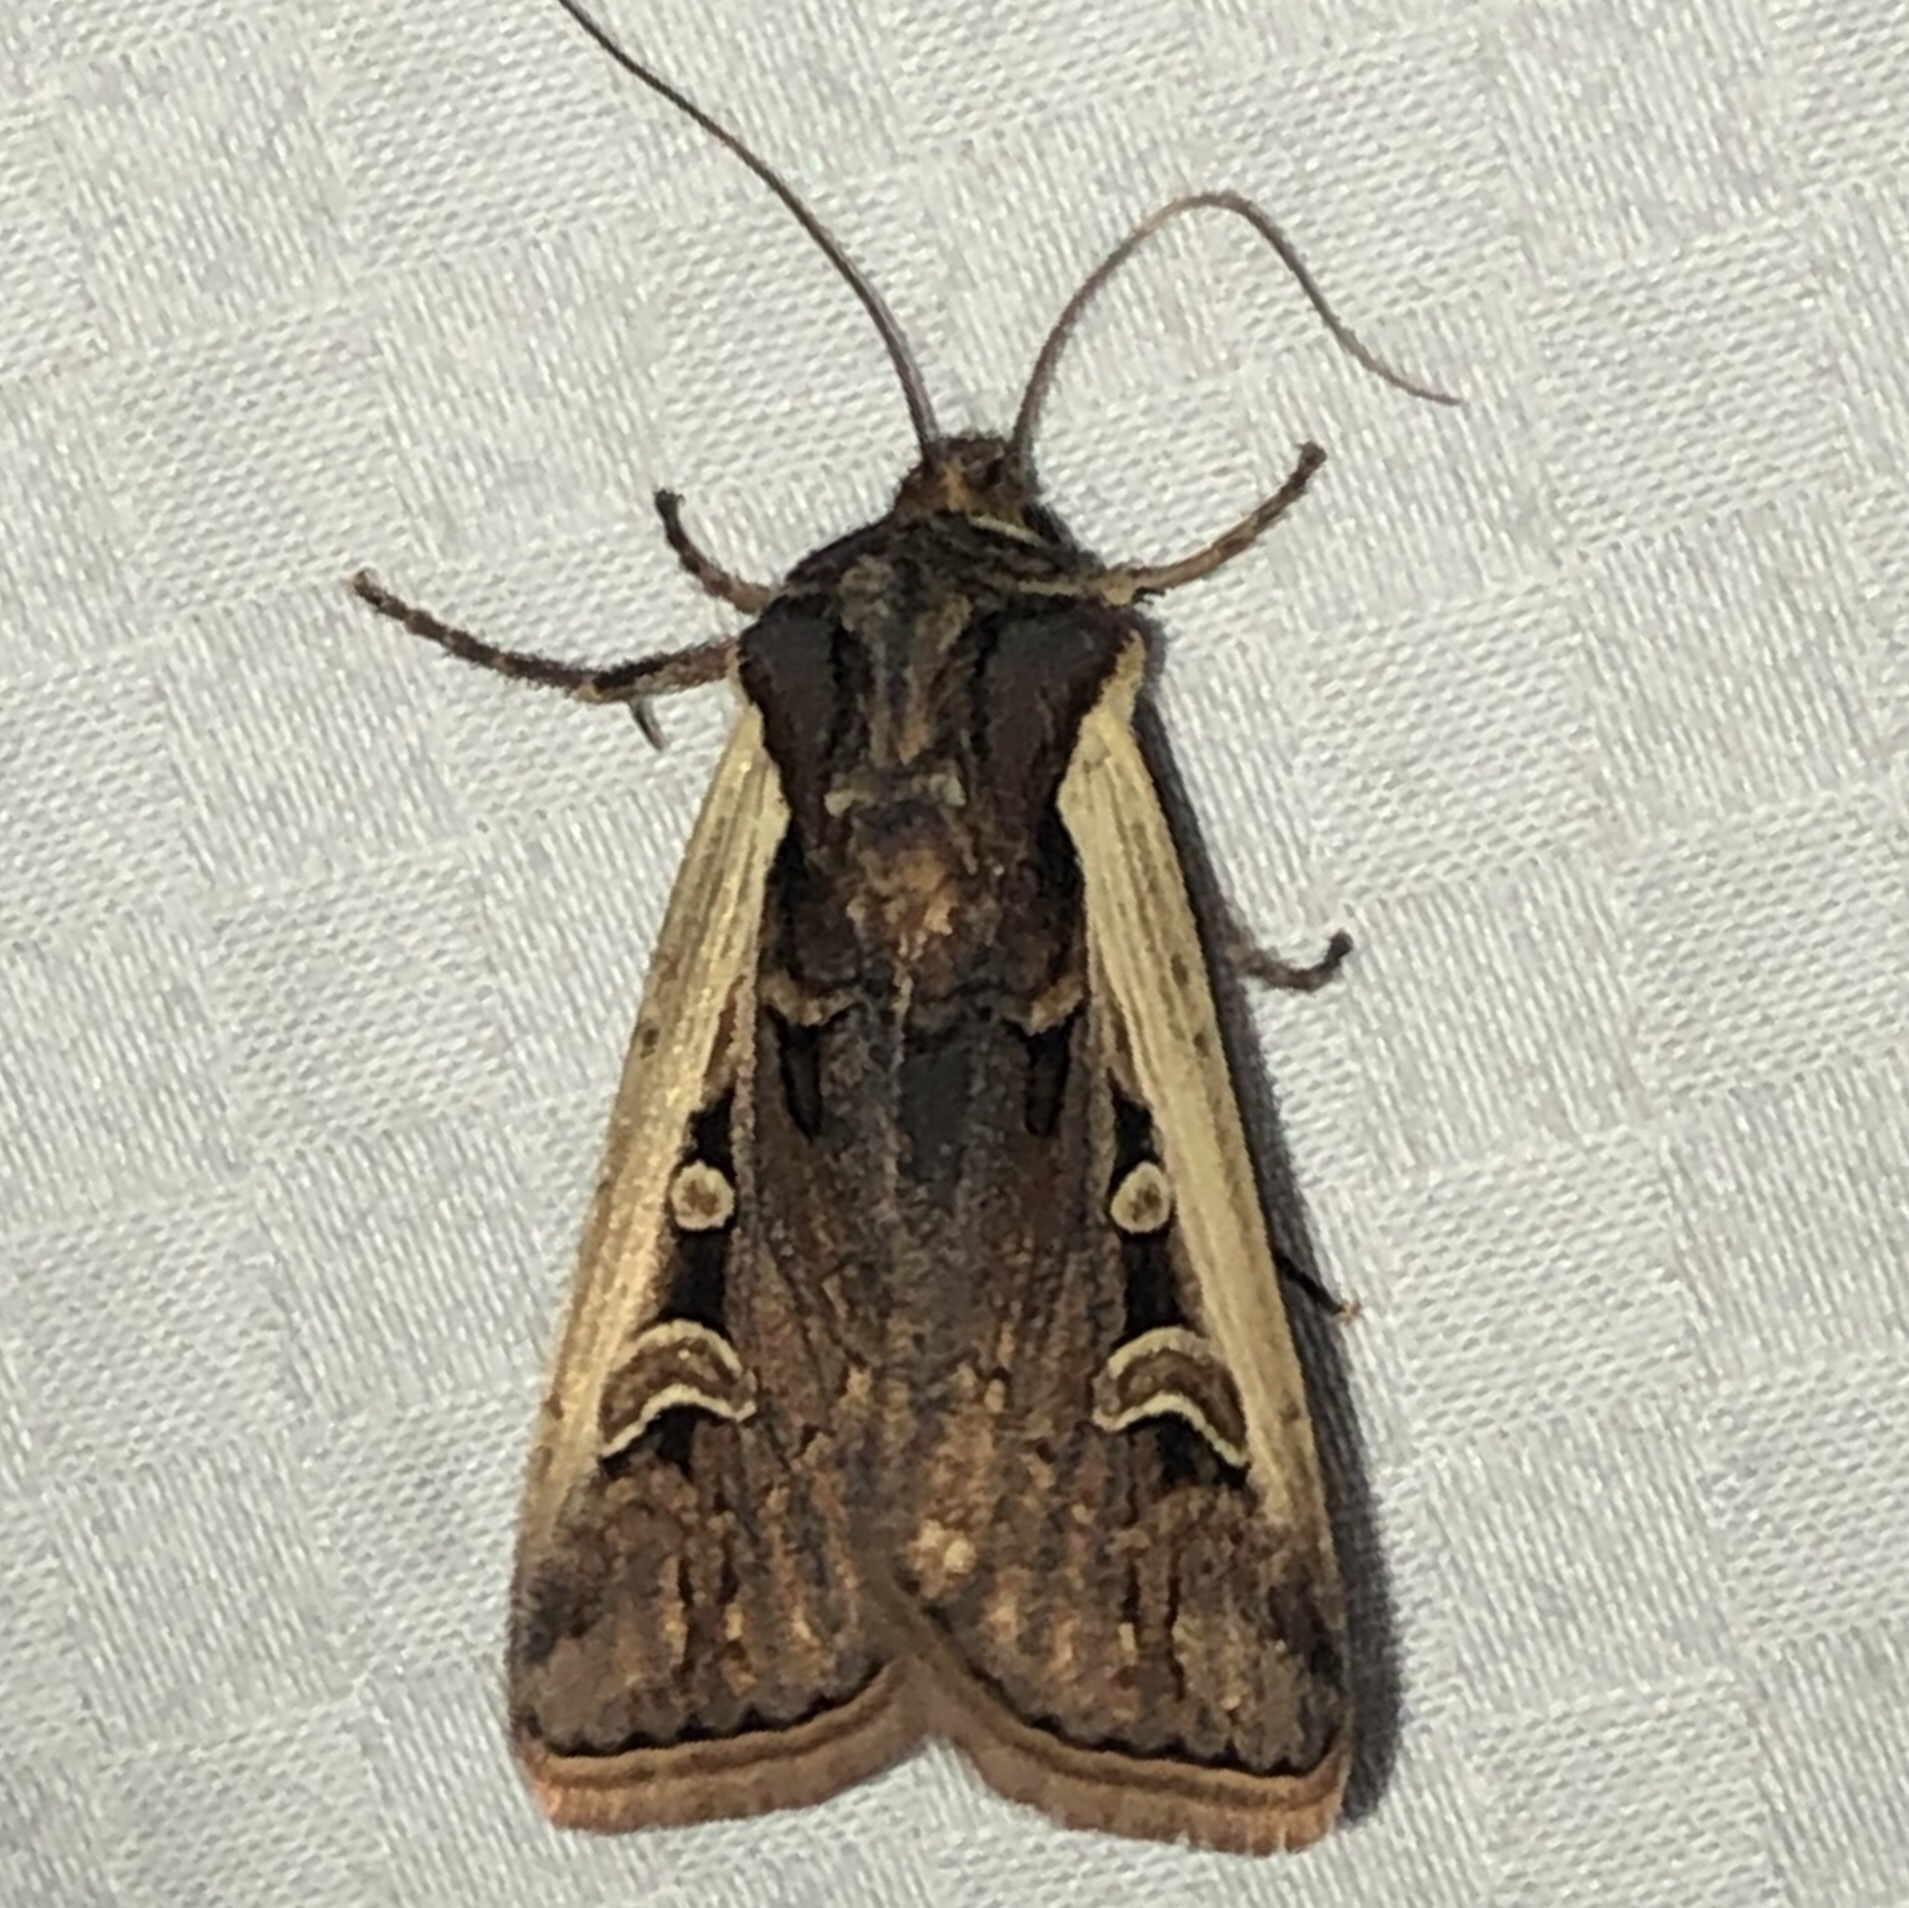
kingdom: Animalia
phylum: Arthropoda
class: Insecta
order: Lepidoptera
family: Noctuidae
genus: Striacosta
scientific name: Striacosta albicosta
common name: Western bean cutworm moth
